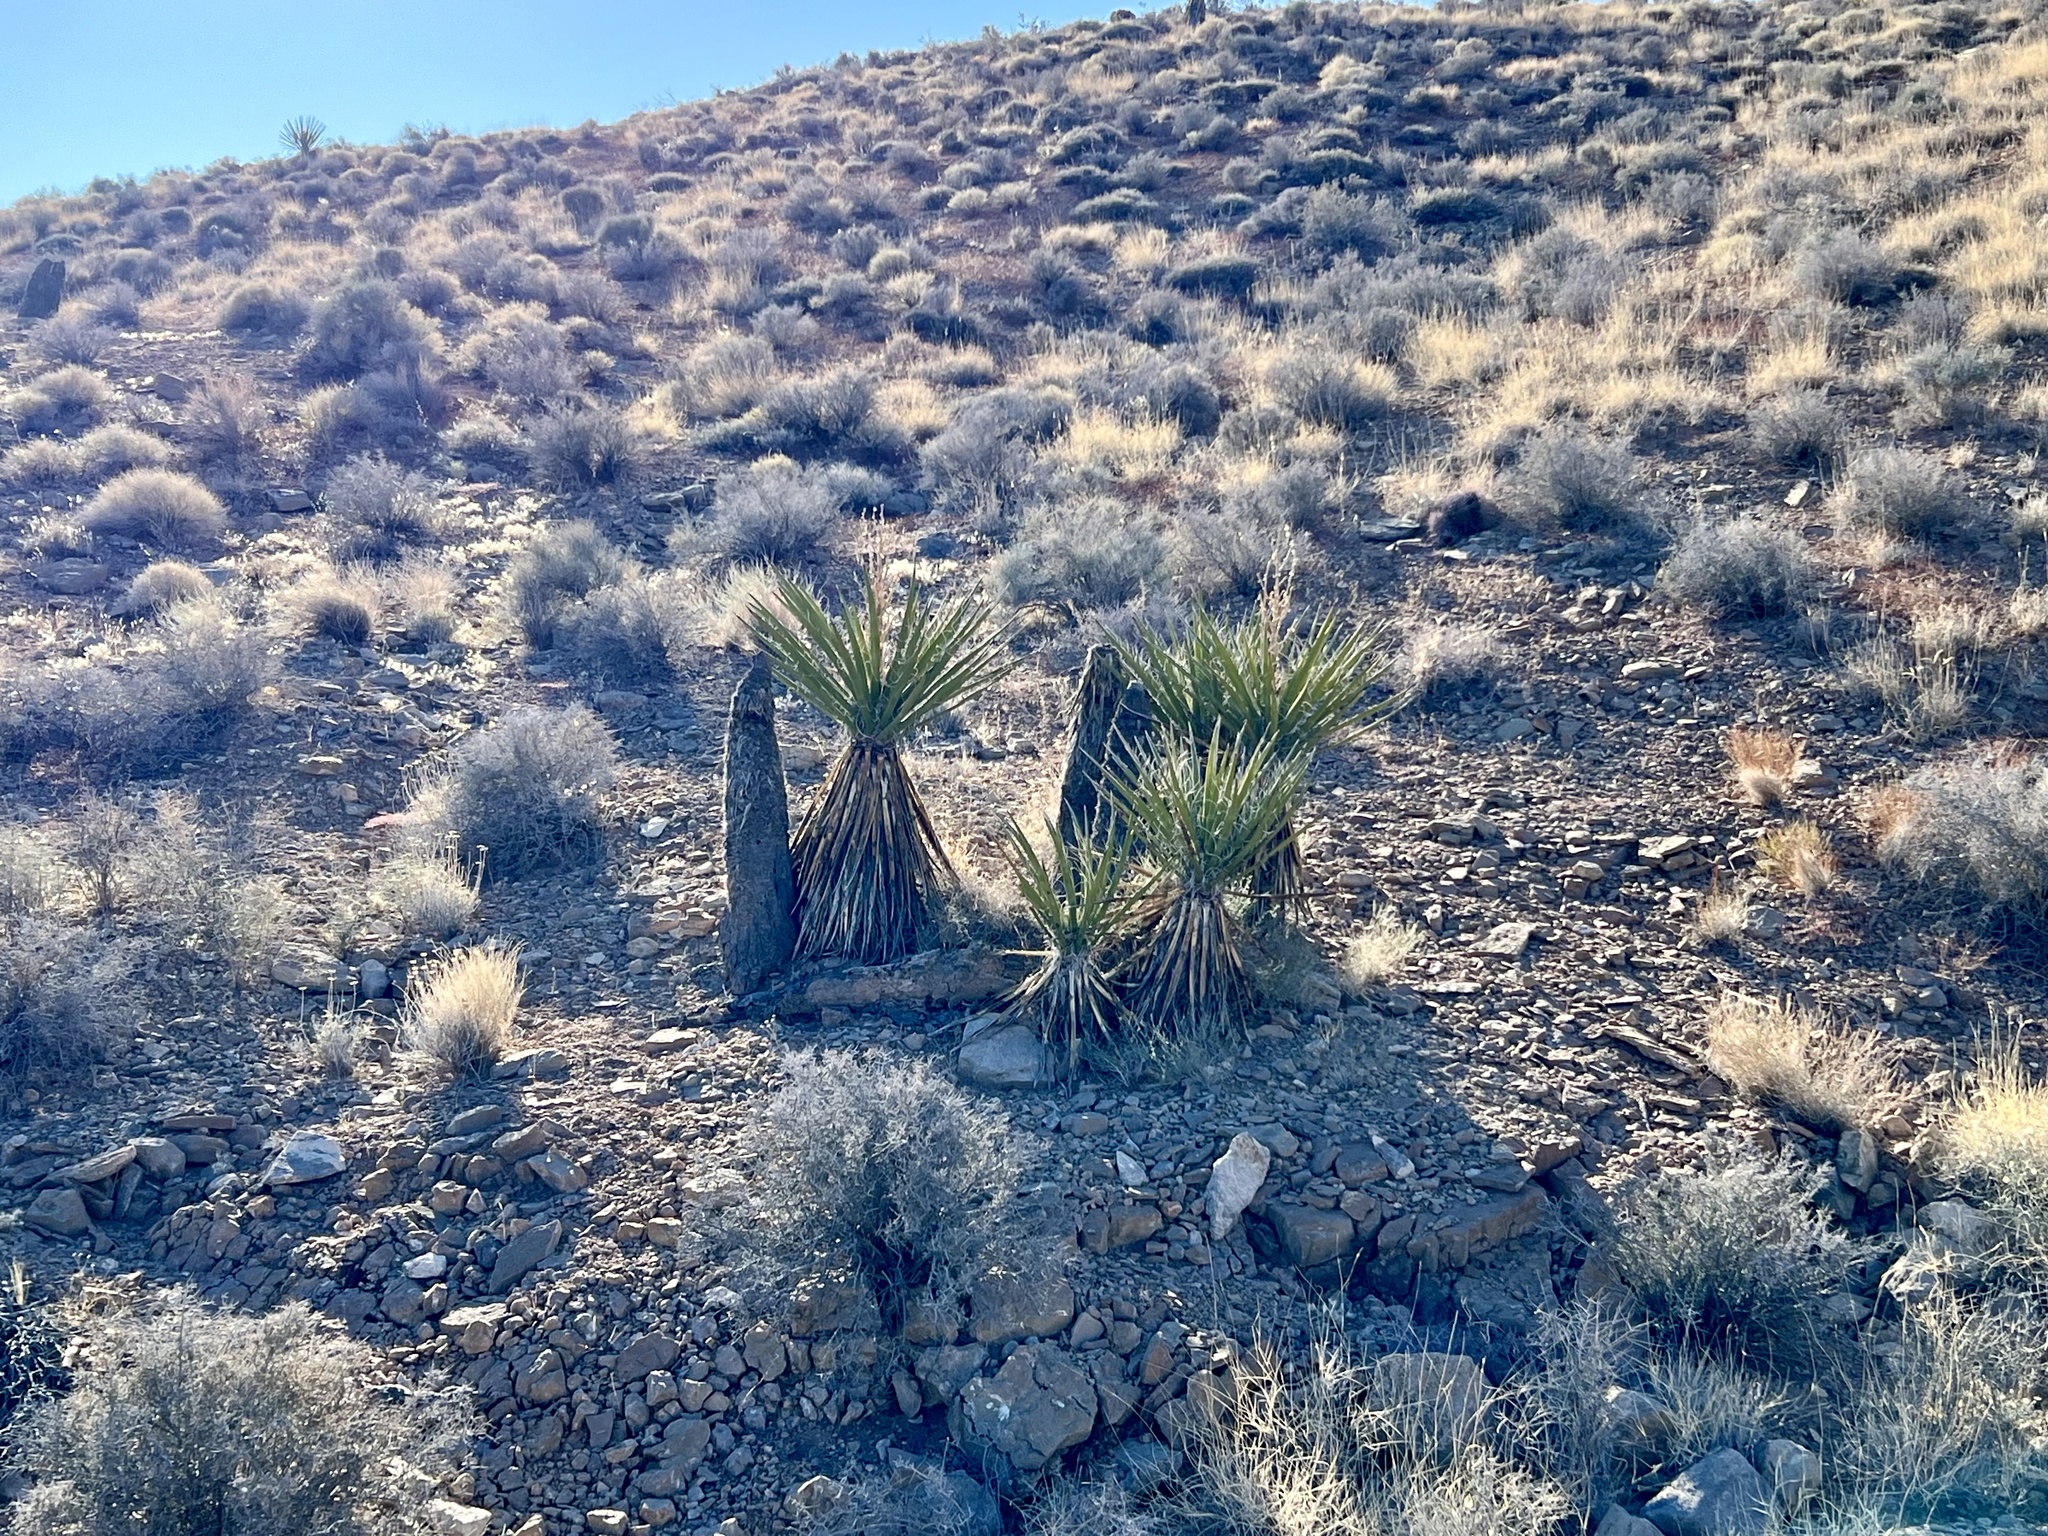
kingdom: Plantae
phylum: Tracheophyta
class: Liliopsida
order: Asparagales
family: Asparagaceae
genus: Yucca
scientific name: Yucca schidigera
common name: Mojave yucca
